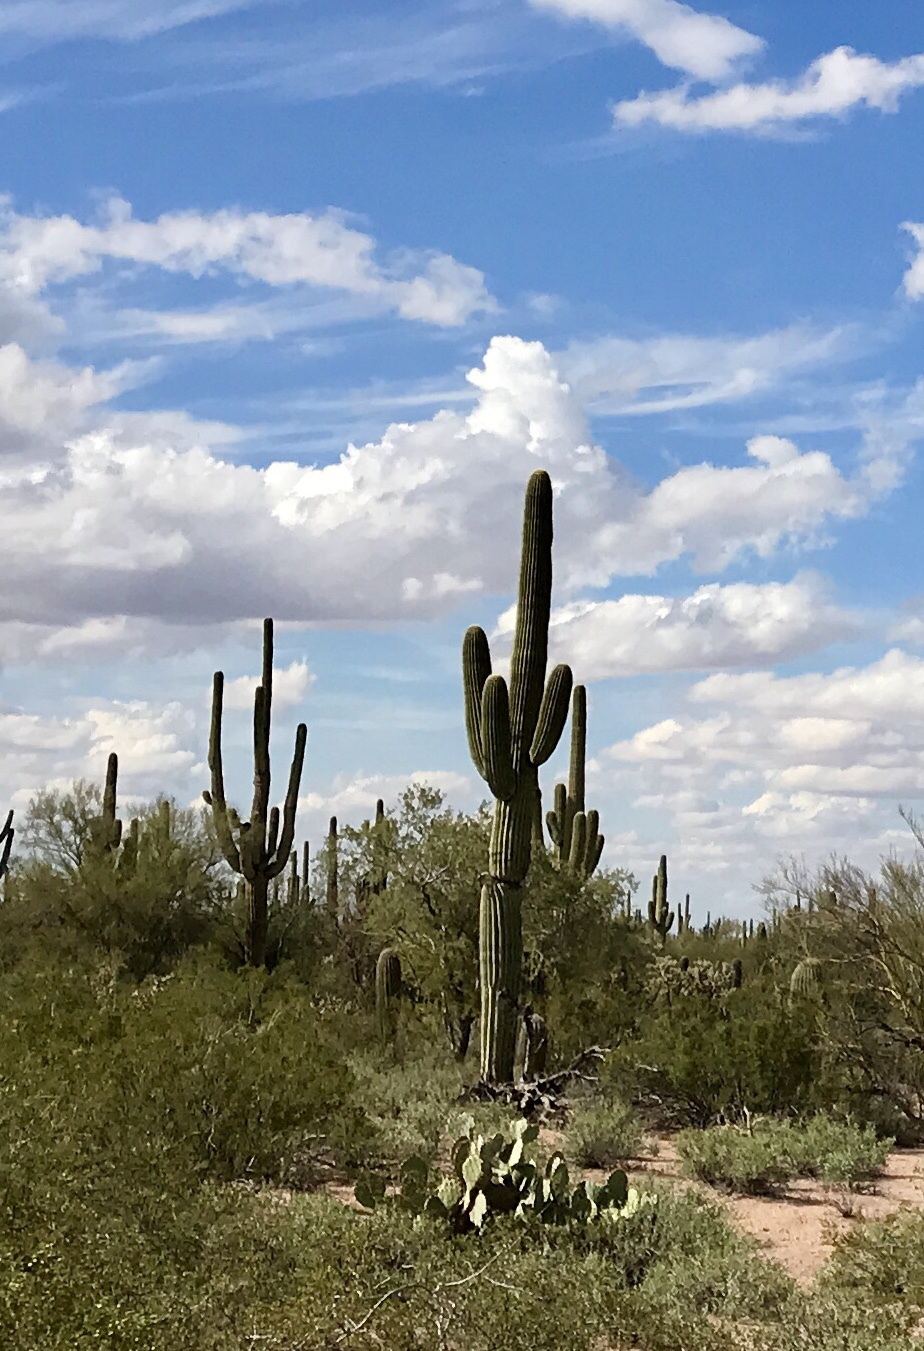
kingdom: Plantae
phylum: Tracheophyta
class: Magnoliopsida
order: Caryophyllales
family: Cactaceae
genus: Carnegiea
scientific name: Carnegiea gigantea
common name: Saguaro
